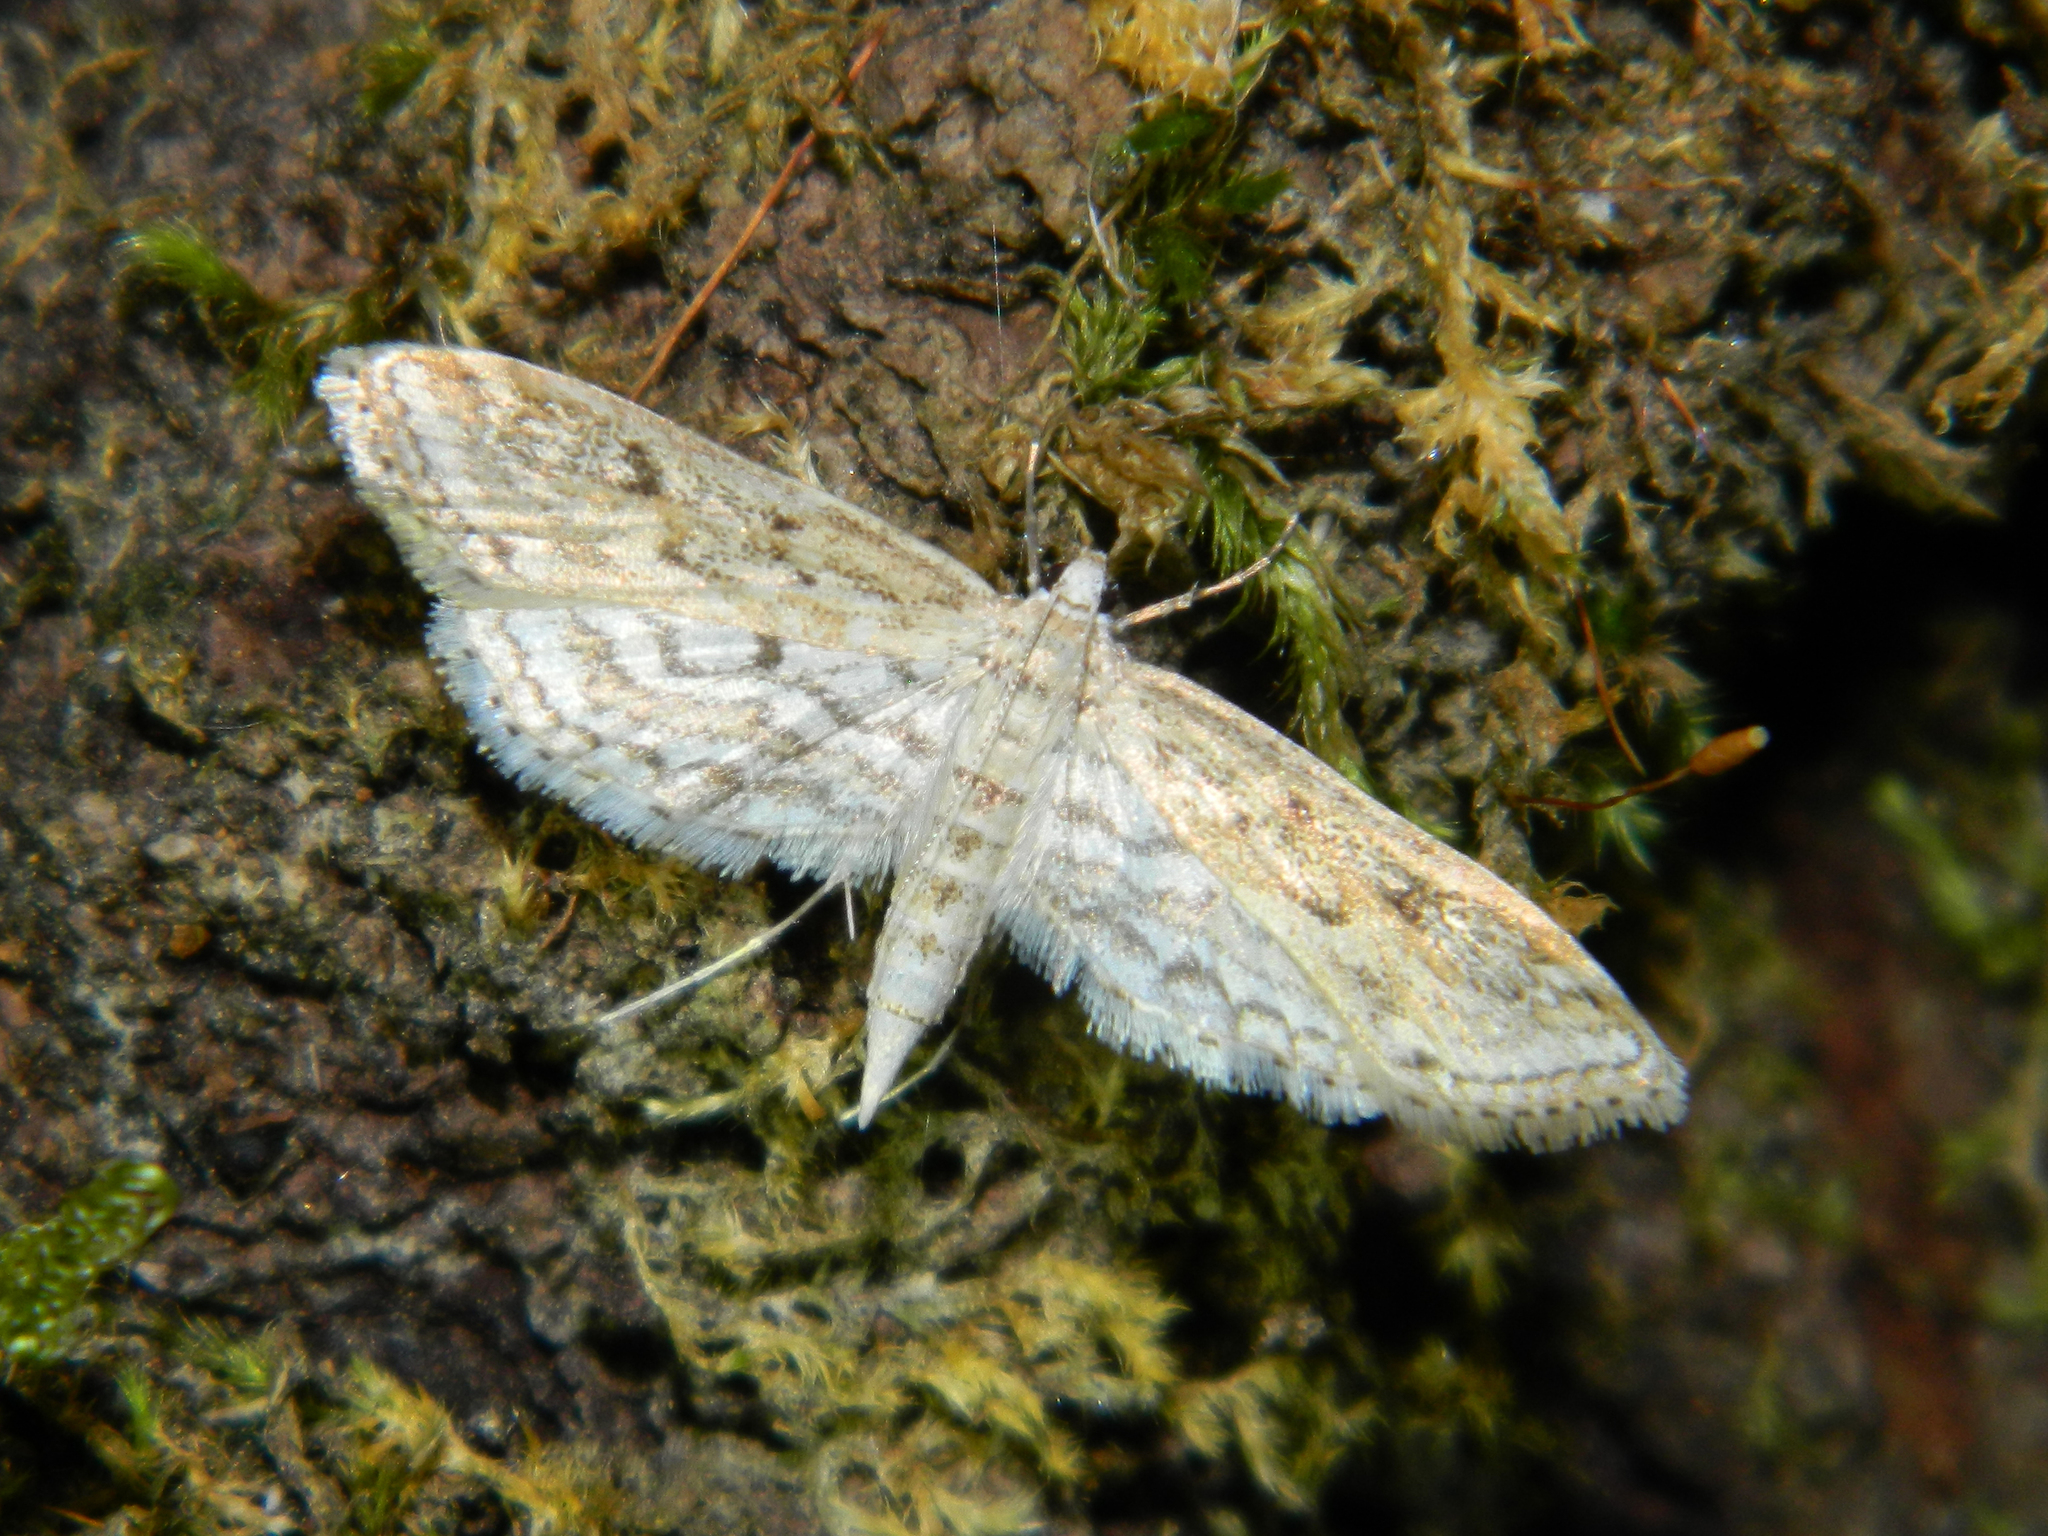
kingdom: Animalia
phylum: Arthropoda
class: Insecta
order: Lepidoptera
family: Crambidae
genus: Parapoynx
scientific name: Parapoynx allionealis
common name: Bladderwort casemaker
